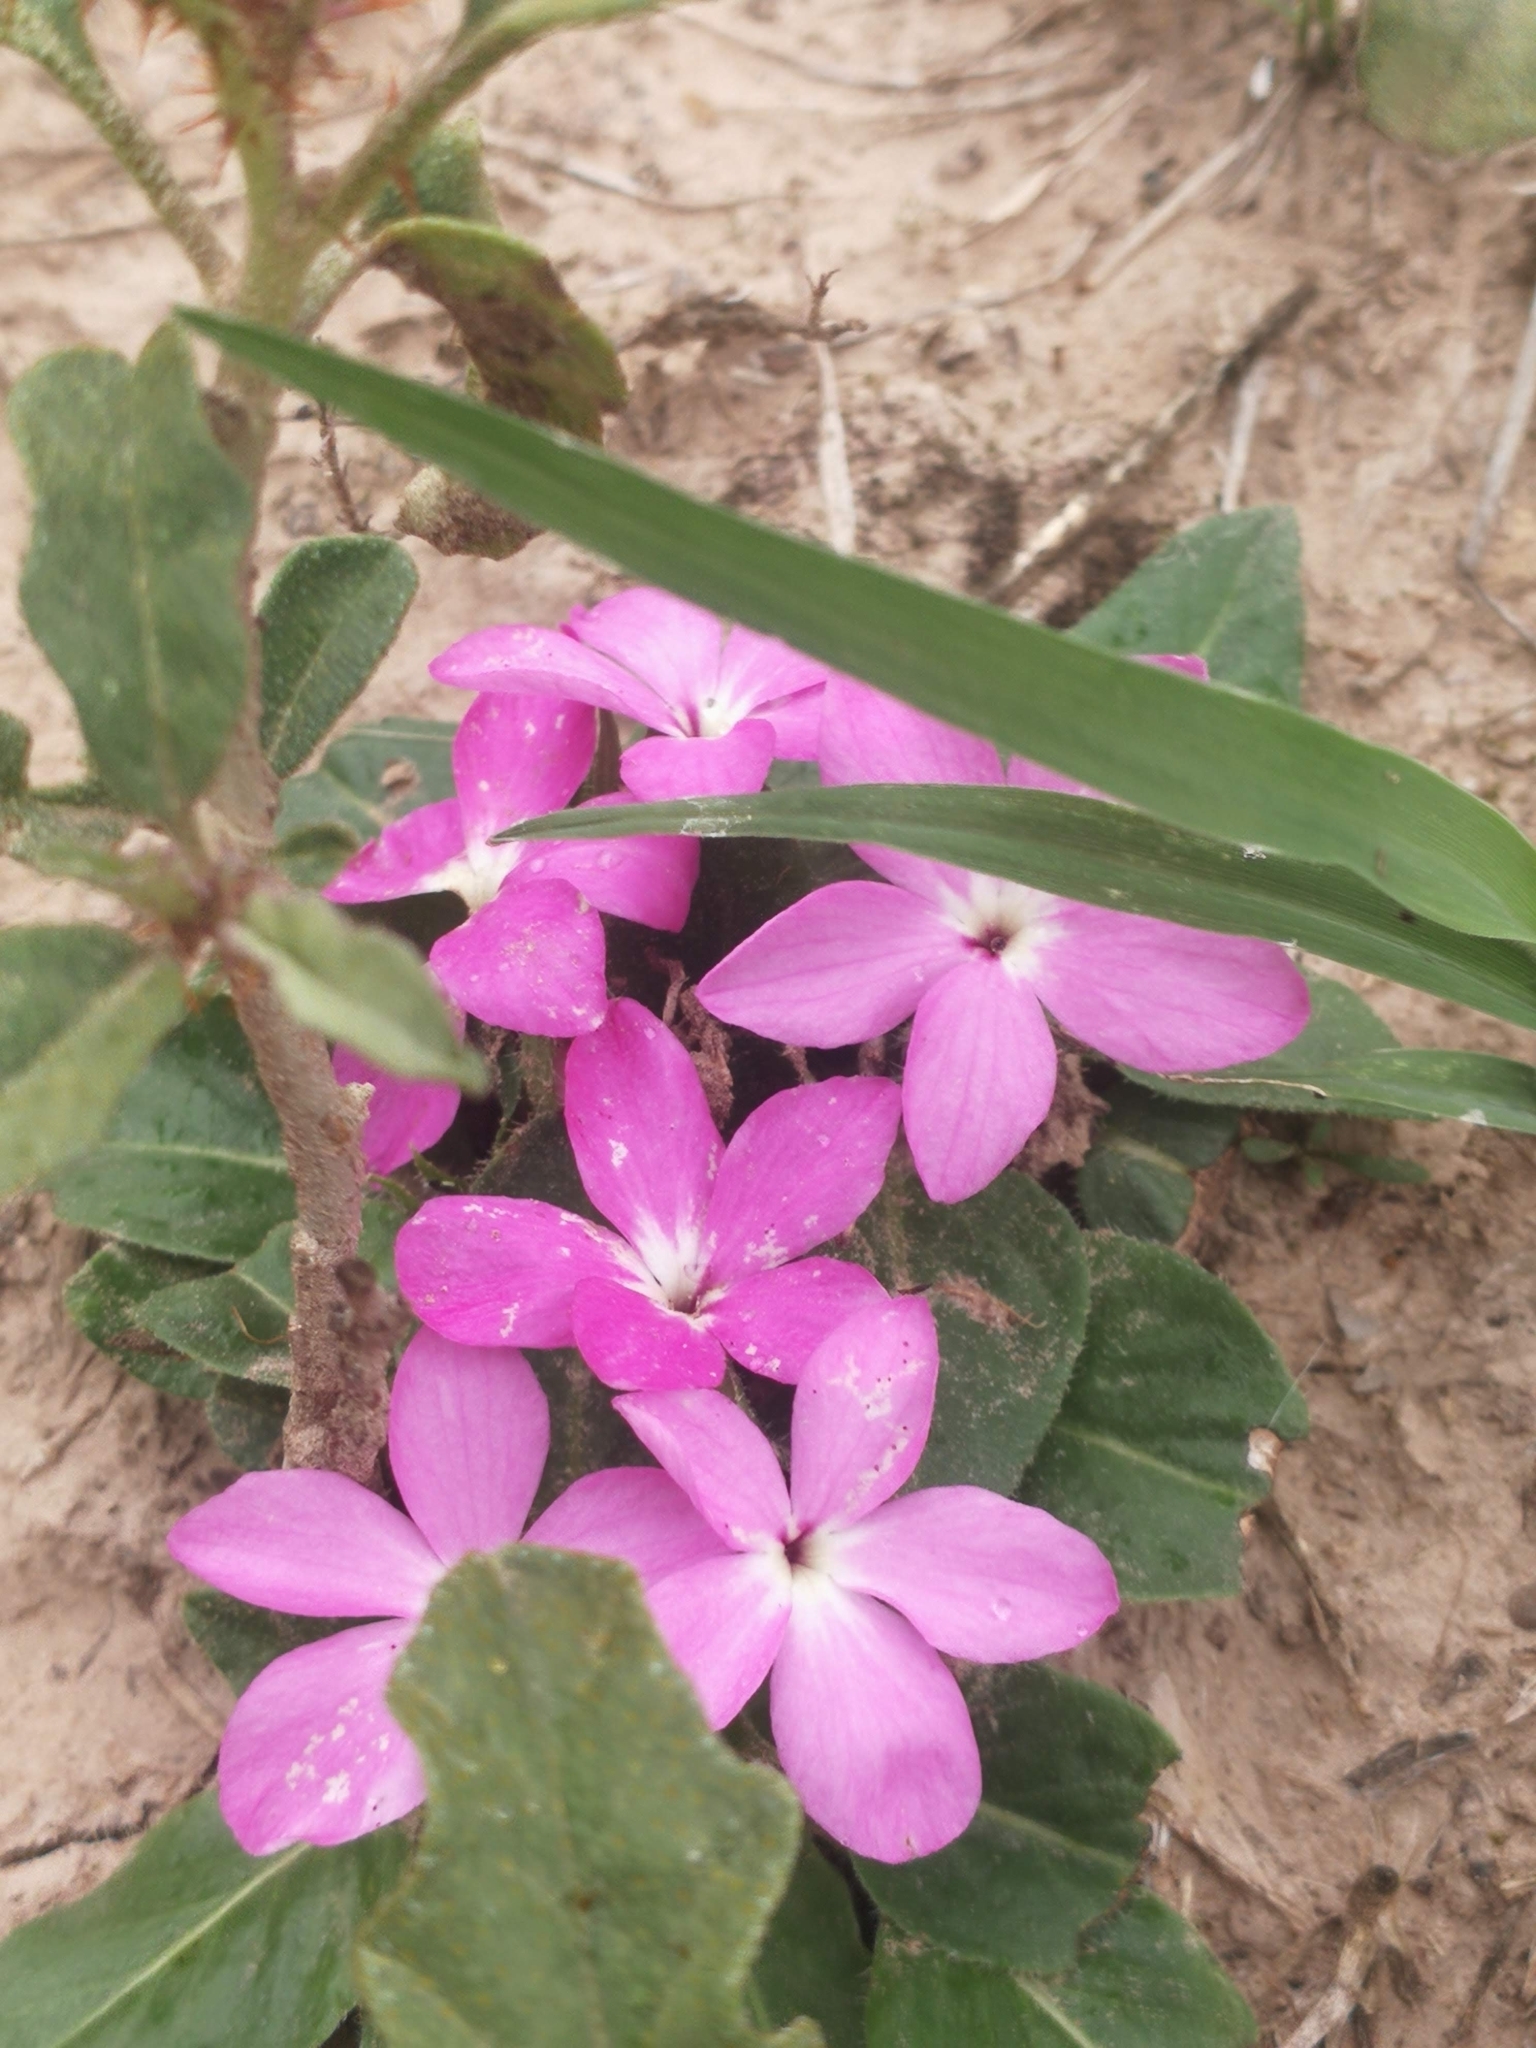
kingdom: Plantae
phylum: Tracheophyta
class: Magnoliopsida
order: Lamiales
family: Acanthaceae
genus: Stenandrium
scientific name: Stenandrium dulce
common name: Pinklet
